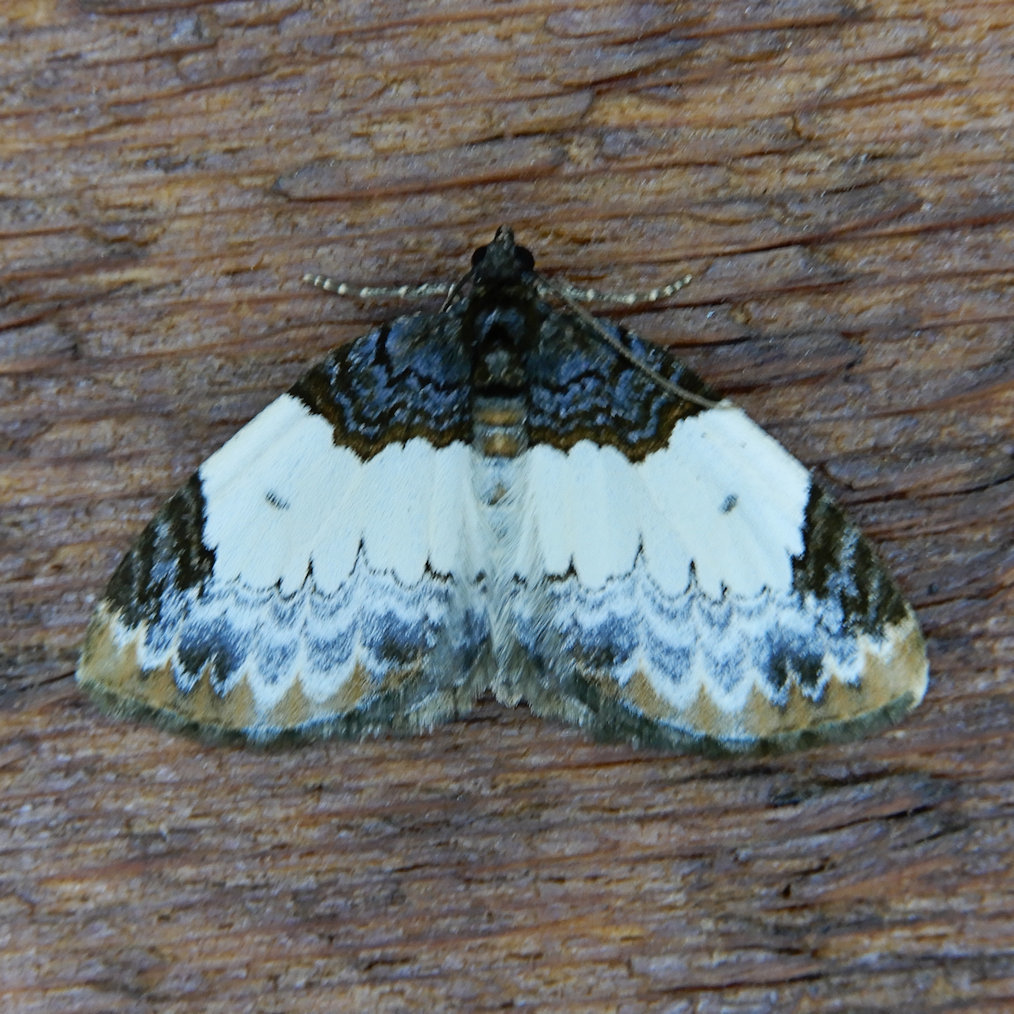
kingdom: Animalia
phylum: Arthropoda
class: Insecta
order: Lepidoptera
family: Geometridae
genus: Mesoleuca
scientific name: Mesoleuca ruficillata
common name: White-ribboned carpet moth
